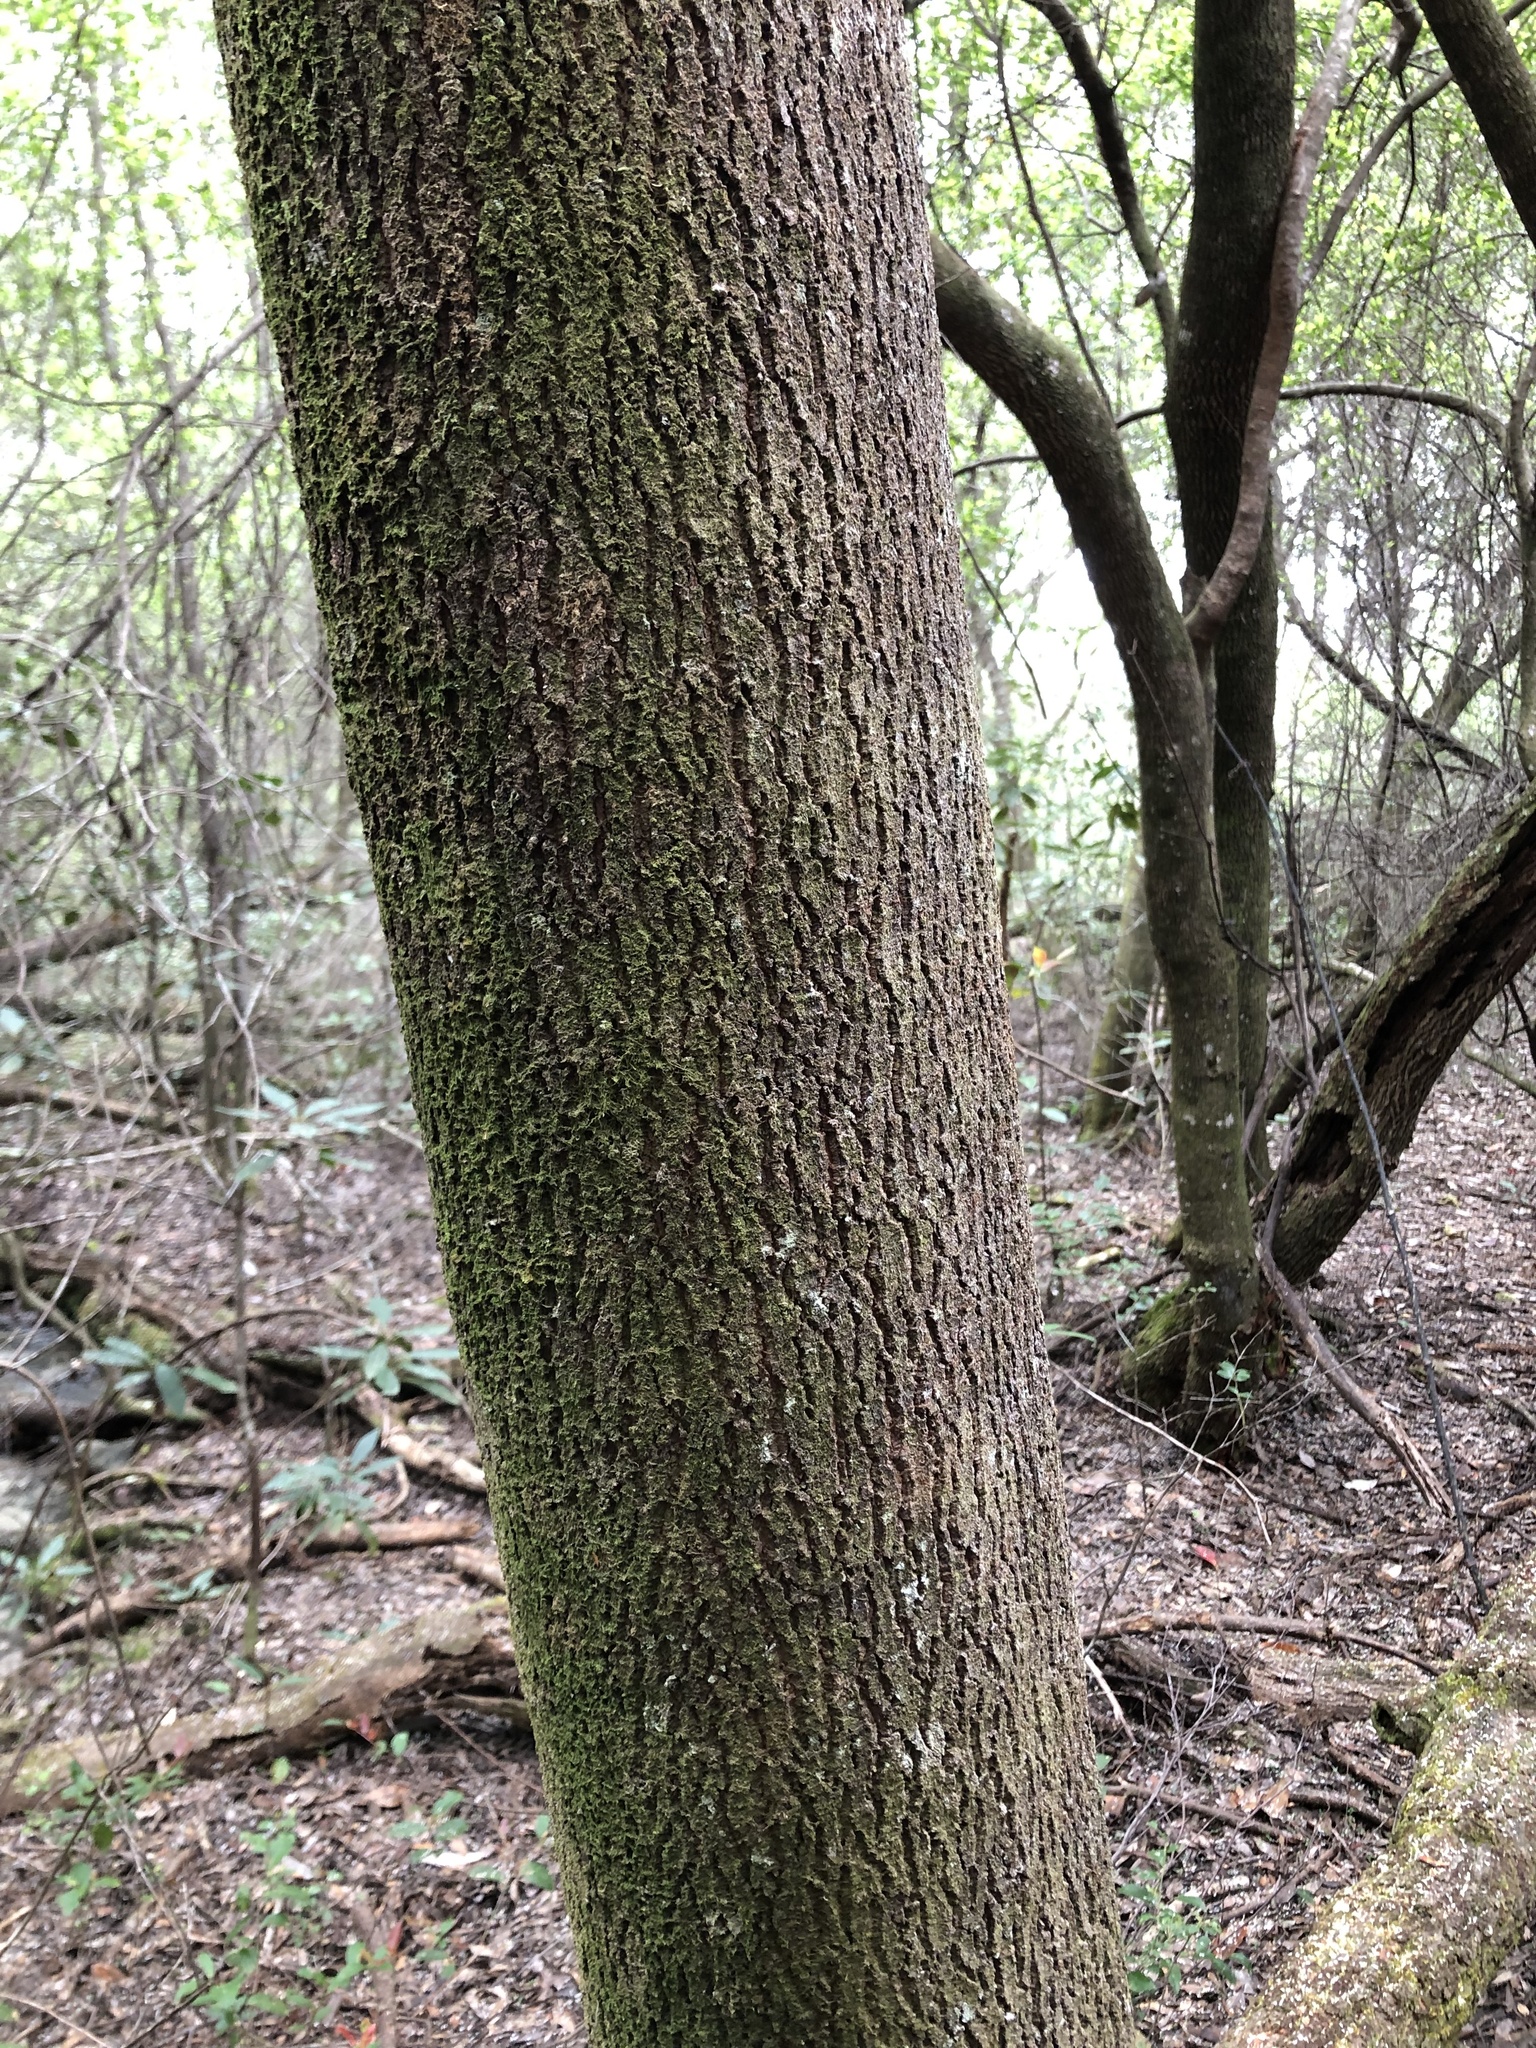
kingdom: Plantae
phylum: Tracheophyta
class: Magnoliopsida
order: Ericales
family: Cyrillaceae
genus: Cliftonia
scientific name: Cliftonia monophylla
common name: Titi
